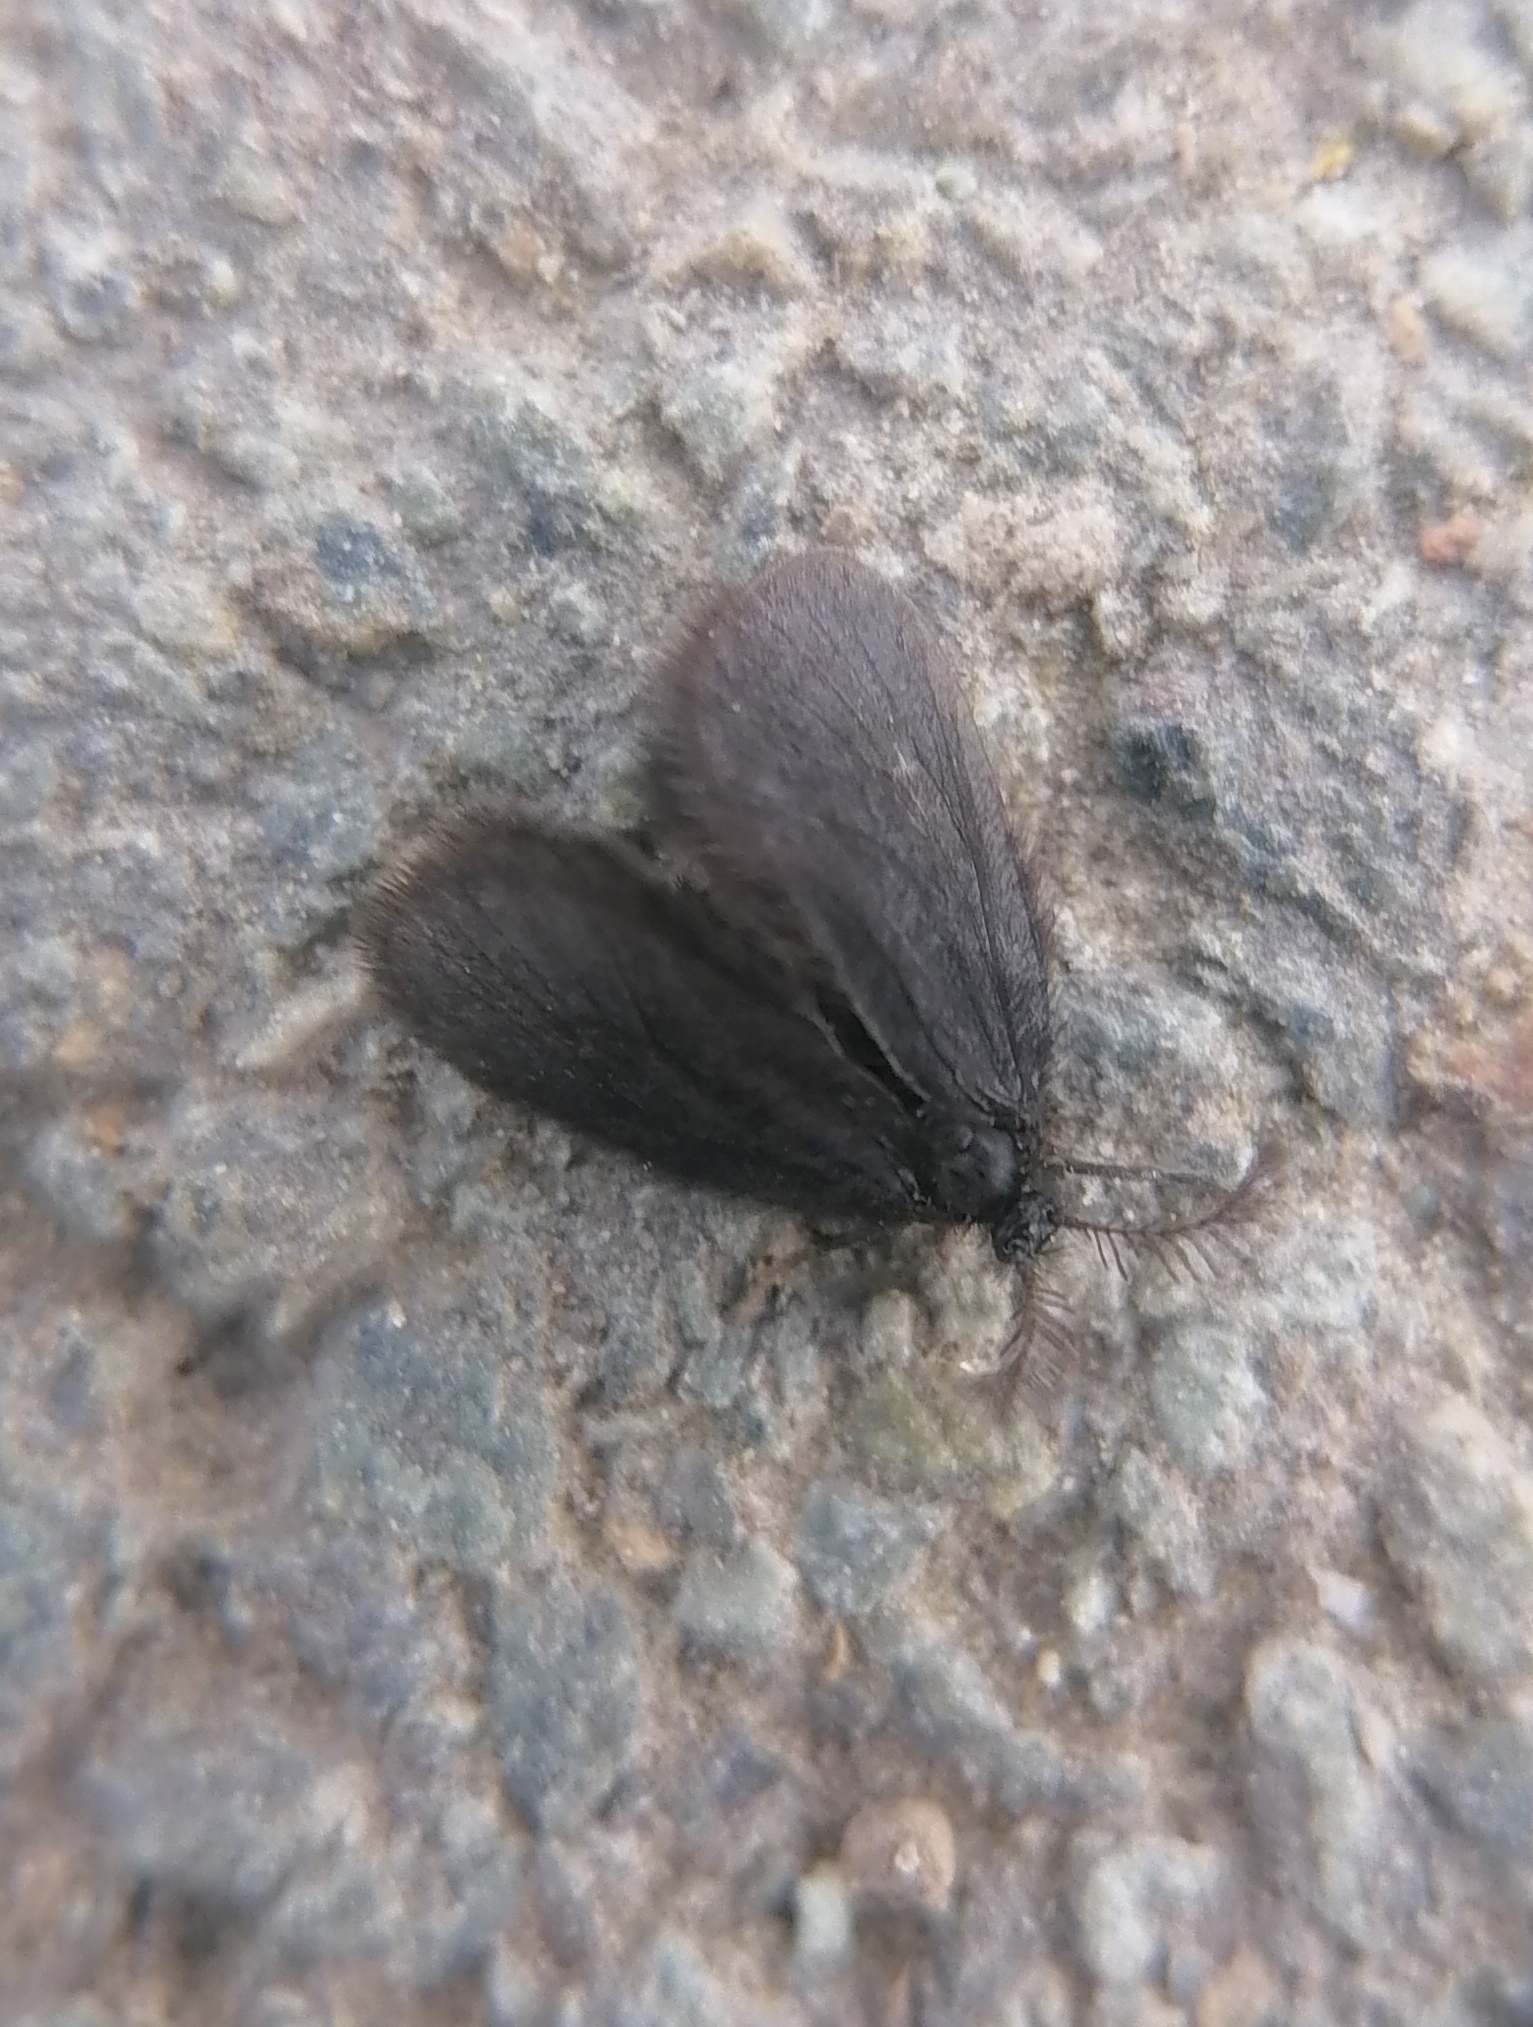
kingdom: Animalia
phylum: Arthropoda
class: Insecta
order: Lepidoptera
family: Psychidae
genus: Epichnopterix
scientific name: Epichnopterix plumella
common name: Round-winged sweep
